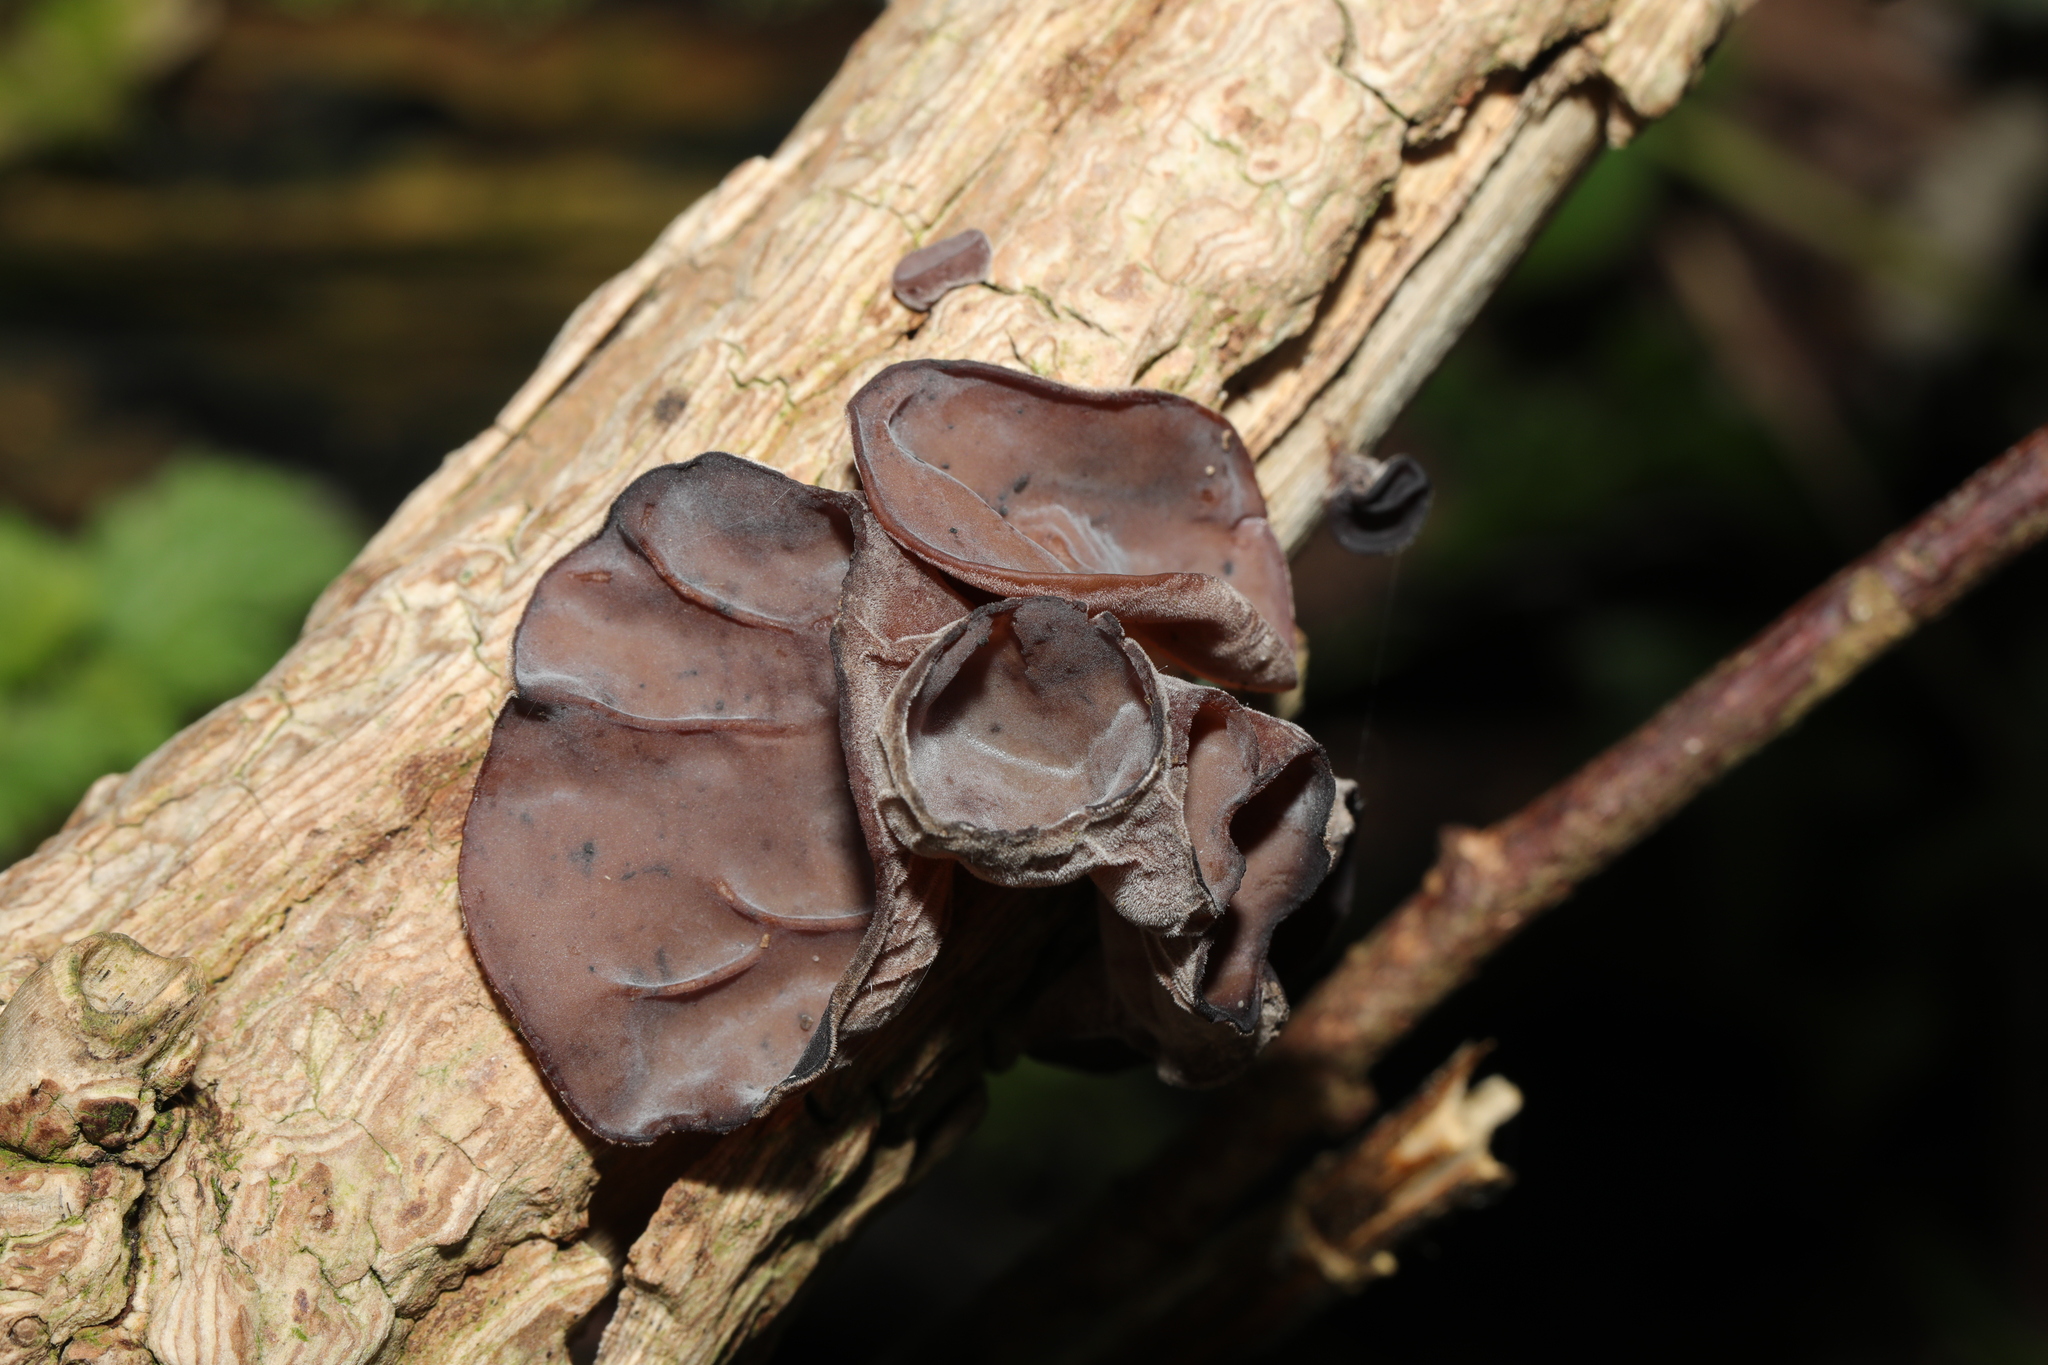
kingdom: Fungi
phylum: Basidiomycota
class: Agaricomycetes
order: Auriculariales
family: Auriculariaceae
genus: Auricularia
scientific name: Auricularia auricula-judae
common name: Jelly ear
